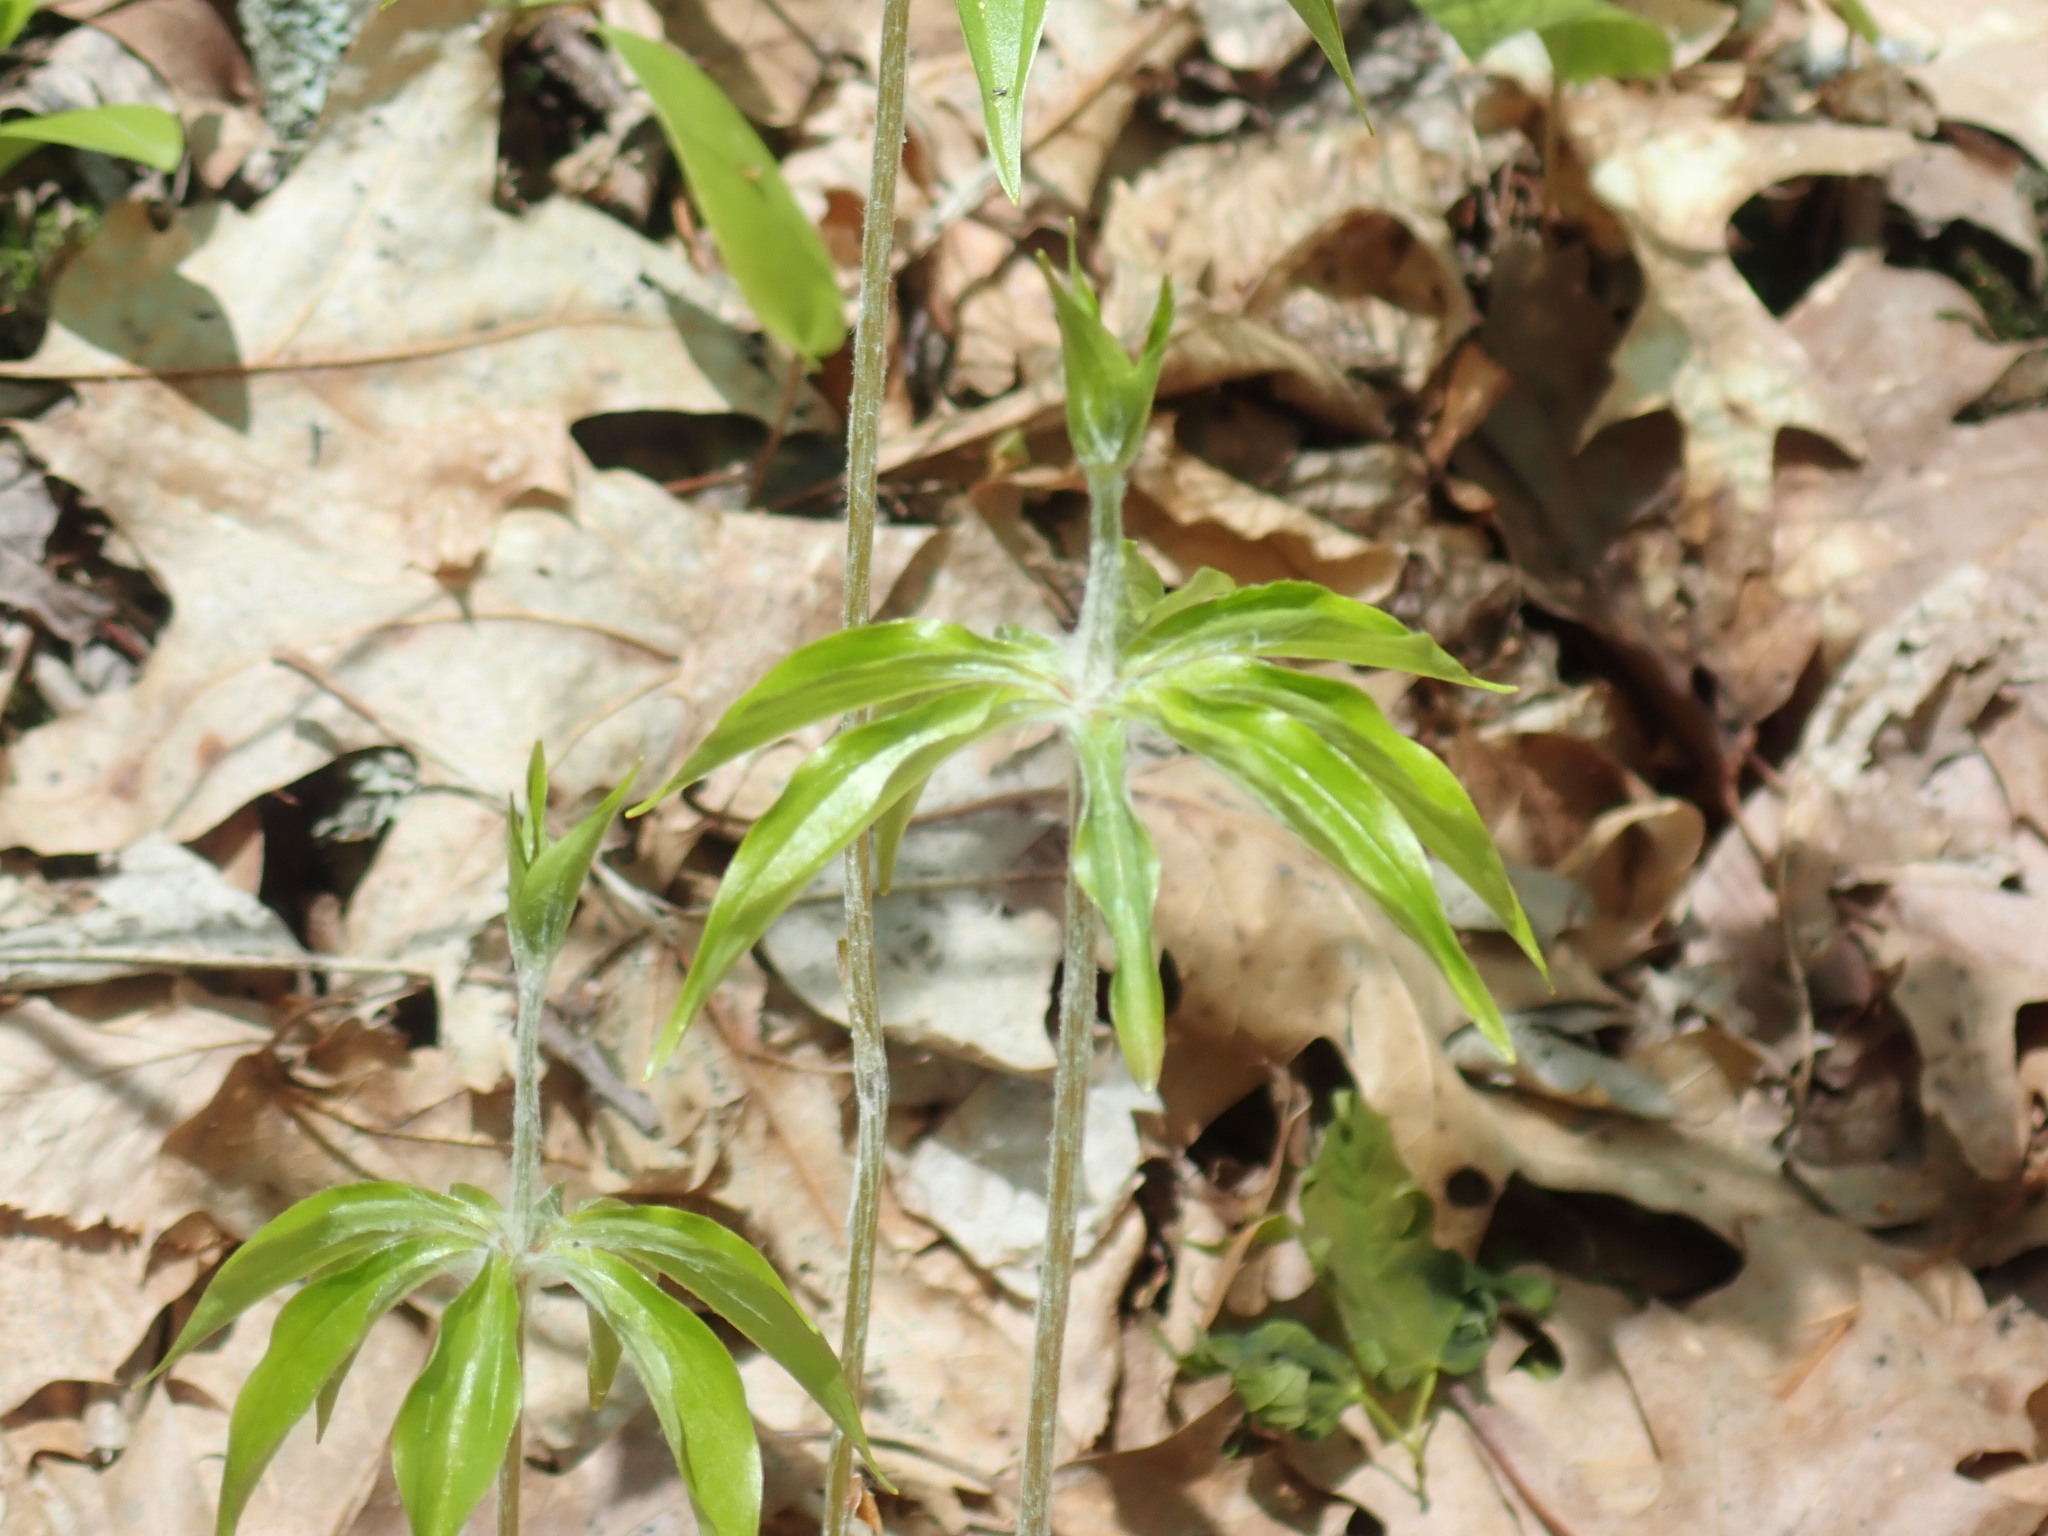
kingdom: Plantae
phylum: Tracheophyta
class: Liliopsida
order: Liliales
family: Liliaceae
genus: Medeola
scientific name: Medeola virginiana
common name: Indian cucumber-root
